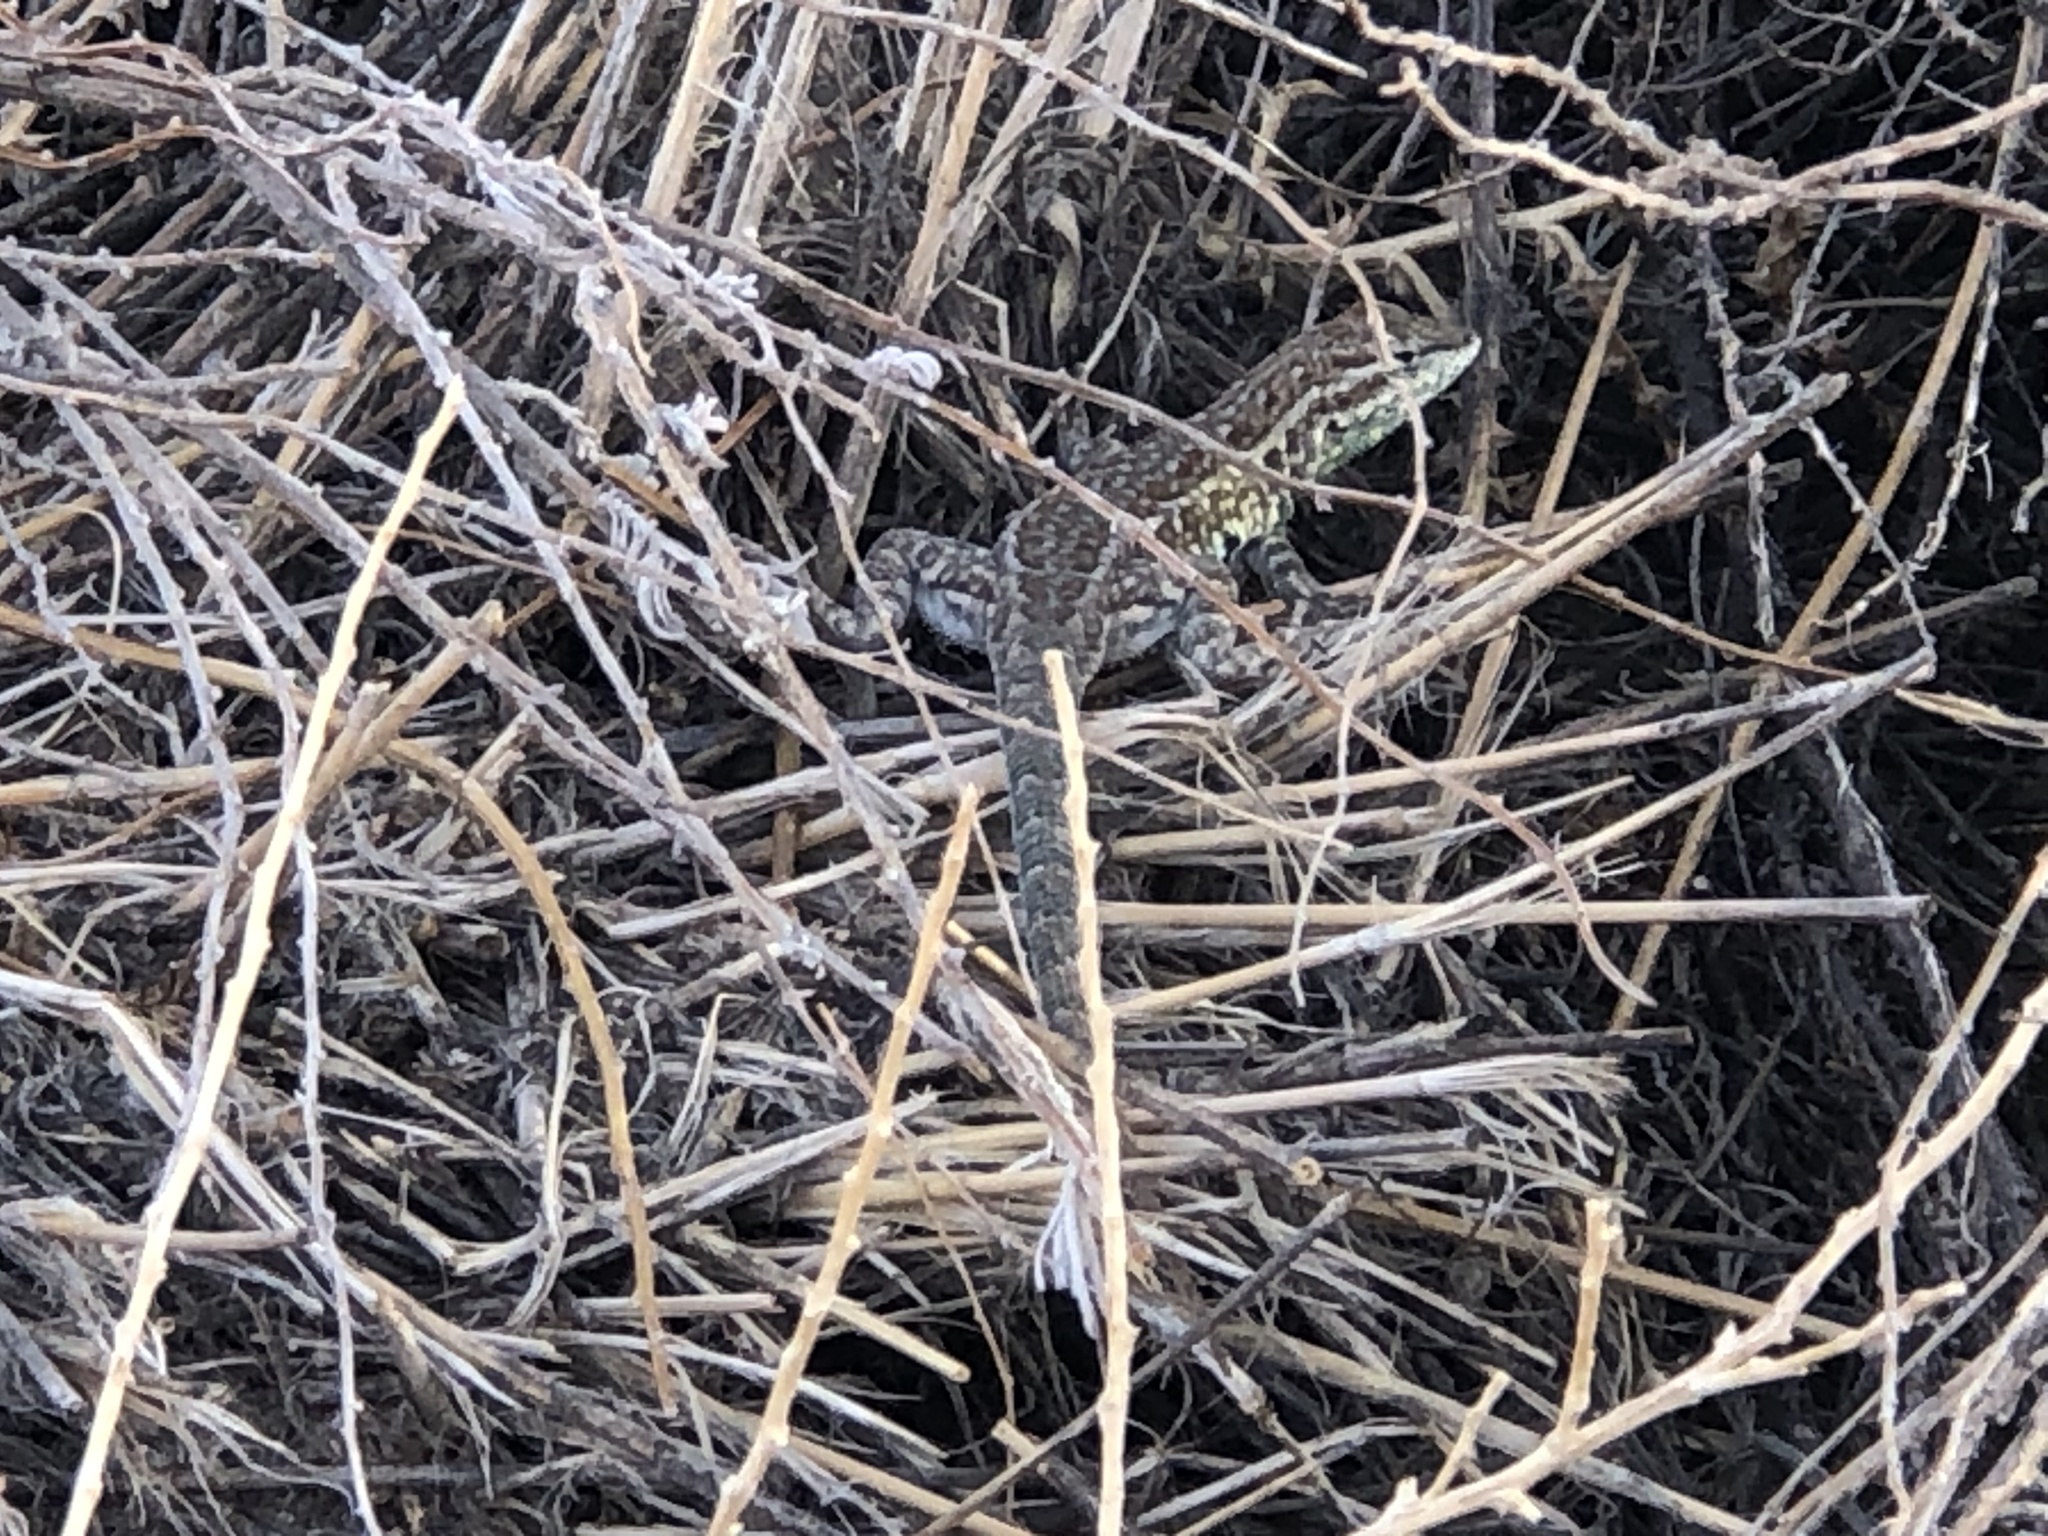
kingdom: Animalia
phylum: Chordata
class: Squamata
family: Phrynosomatidae
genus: Uta
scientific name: Uta stansburiana
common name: Side-blotched lizard
